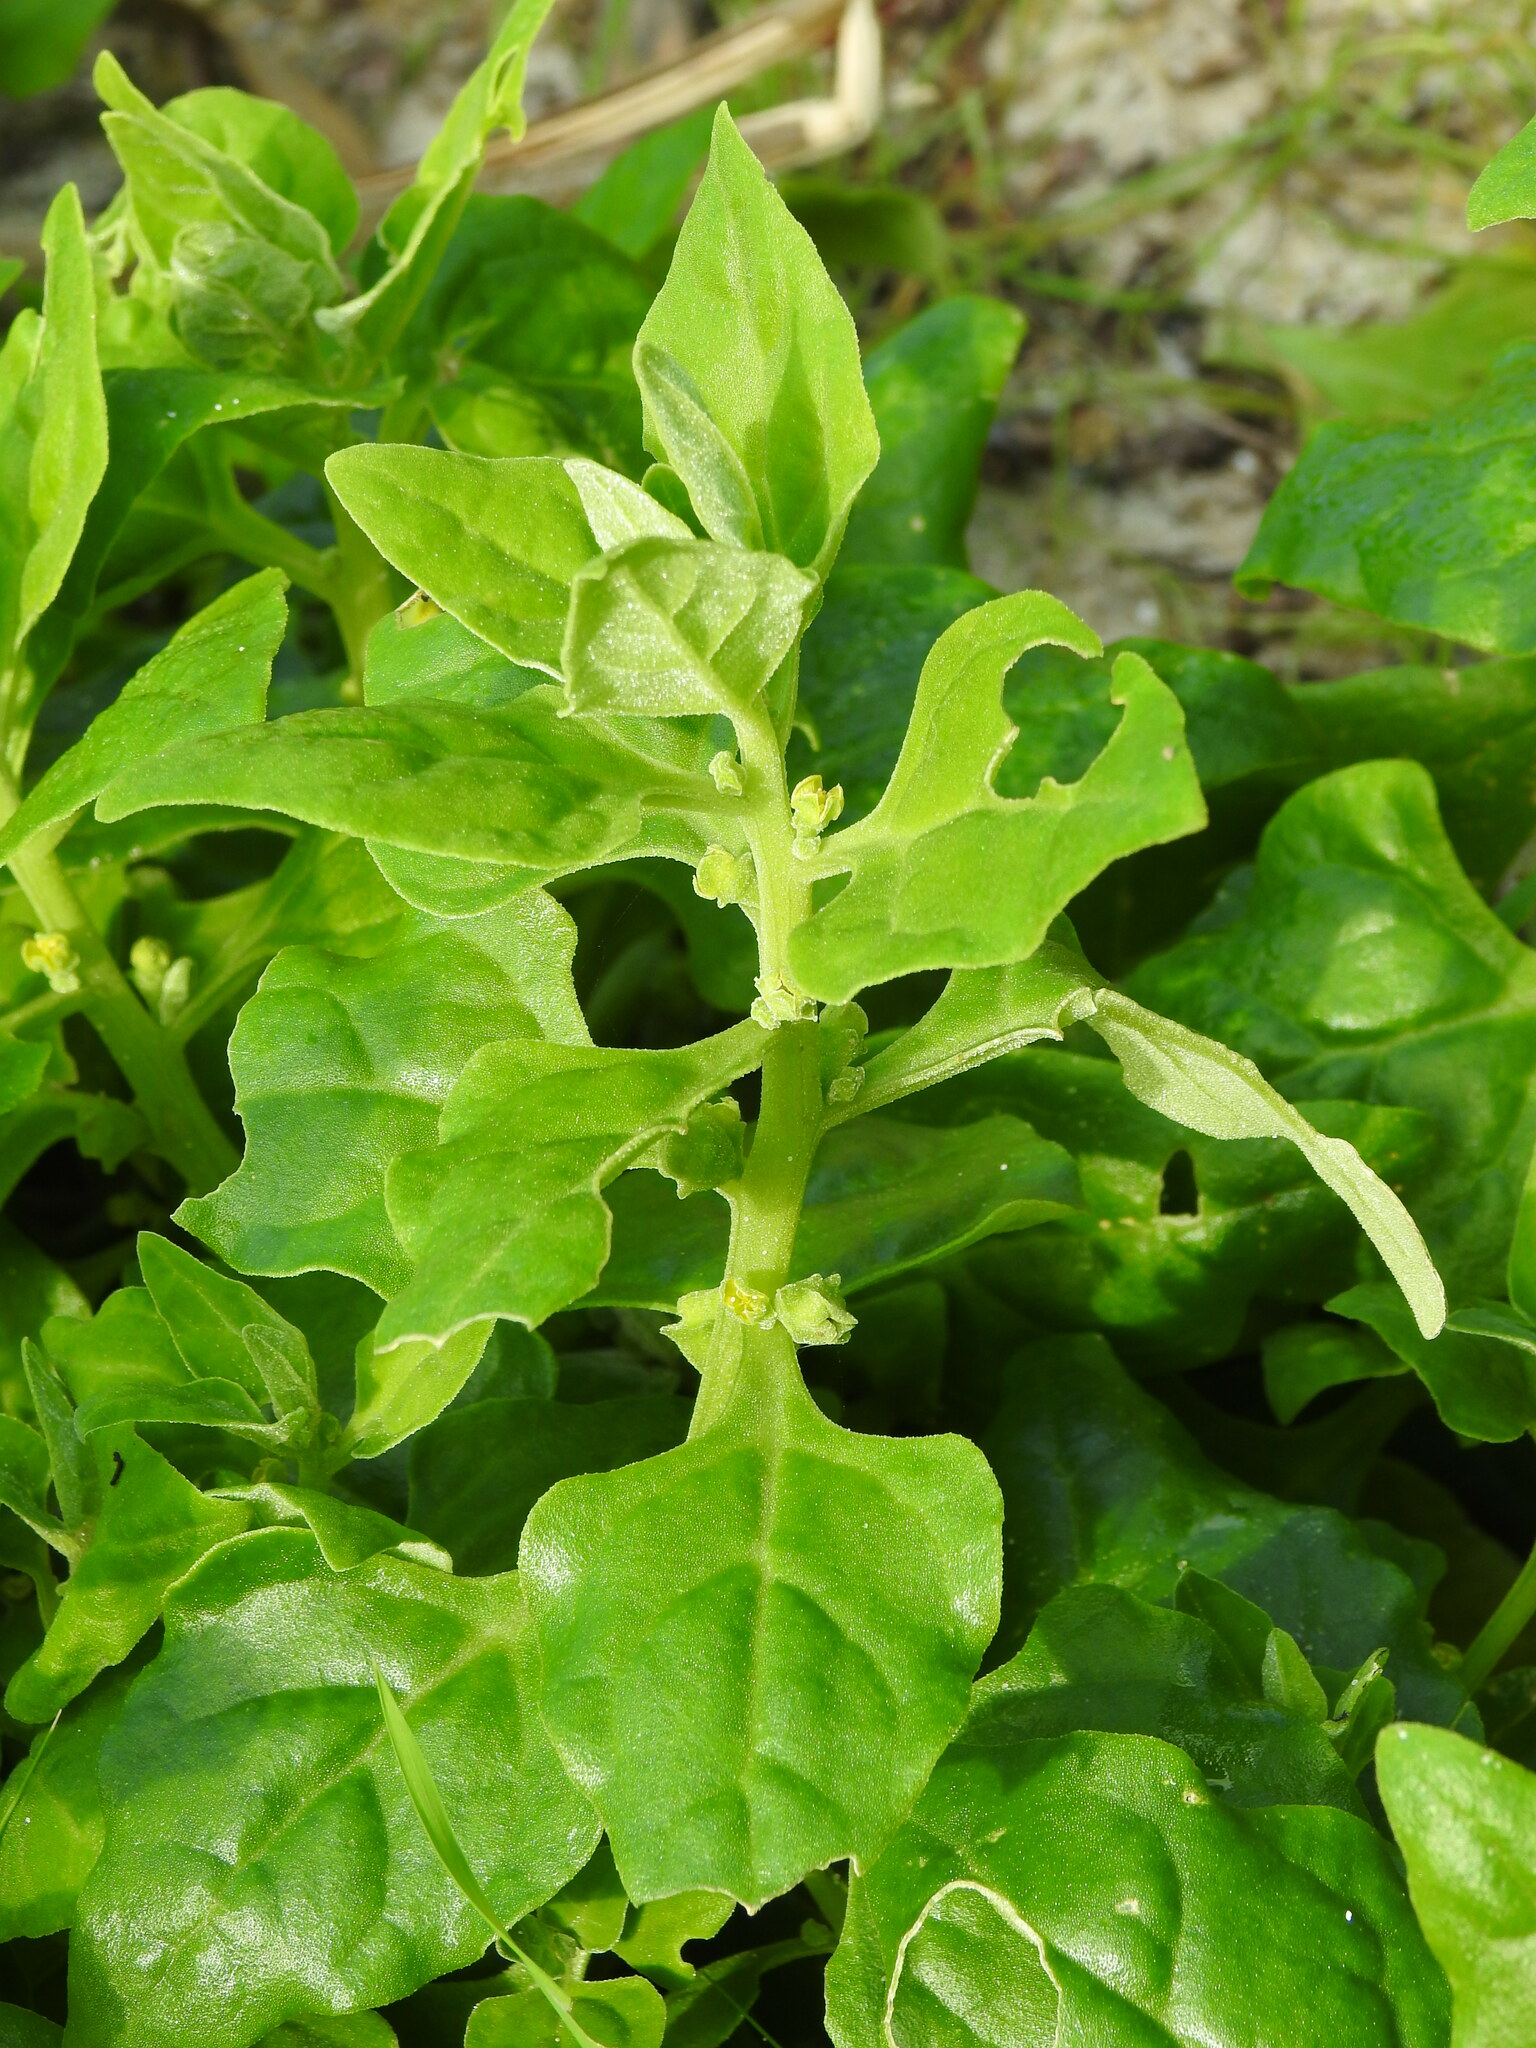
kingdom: Plantae
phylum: Tracheophyta
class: Magnoliopsida
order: Caryophyllales
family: Aizoaceae
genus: Tetragonia
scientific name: Tetragonia tetragonoides
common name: New zealand-spinach
